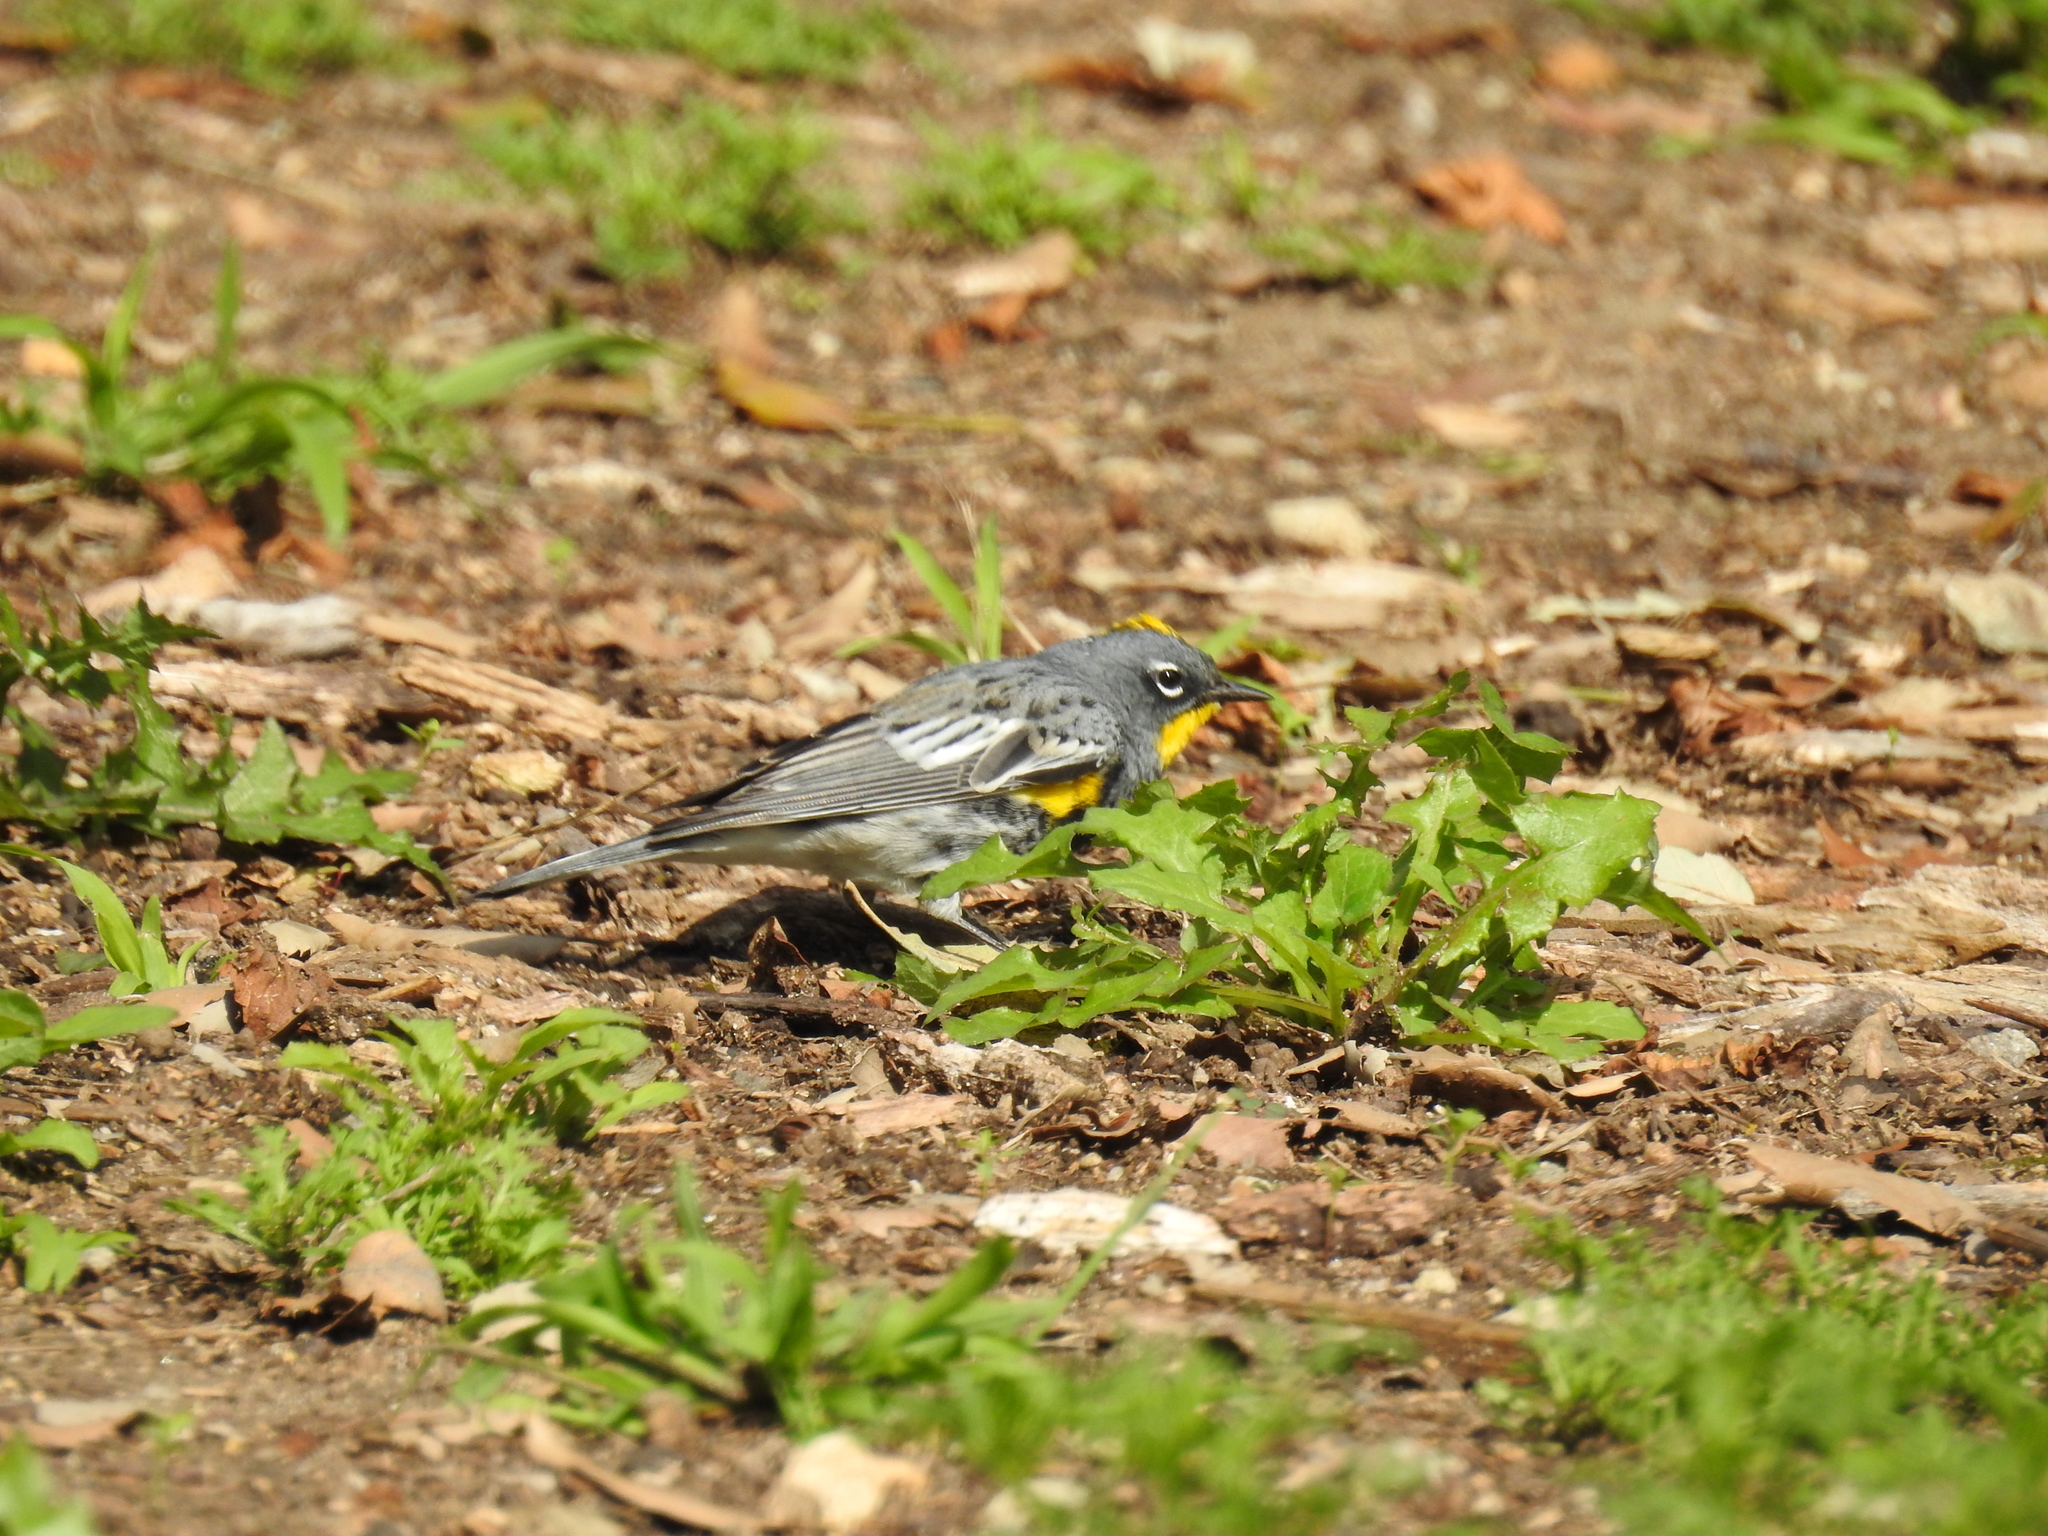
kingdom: Animalia
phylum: Chordata
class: Aves
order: Passeriformes
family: Parulidae
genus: Setophaga
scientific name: Setophaga auduboni
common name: Audubon's warbler
